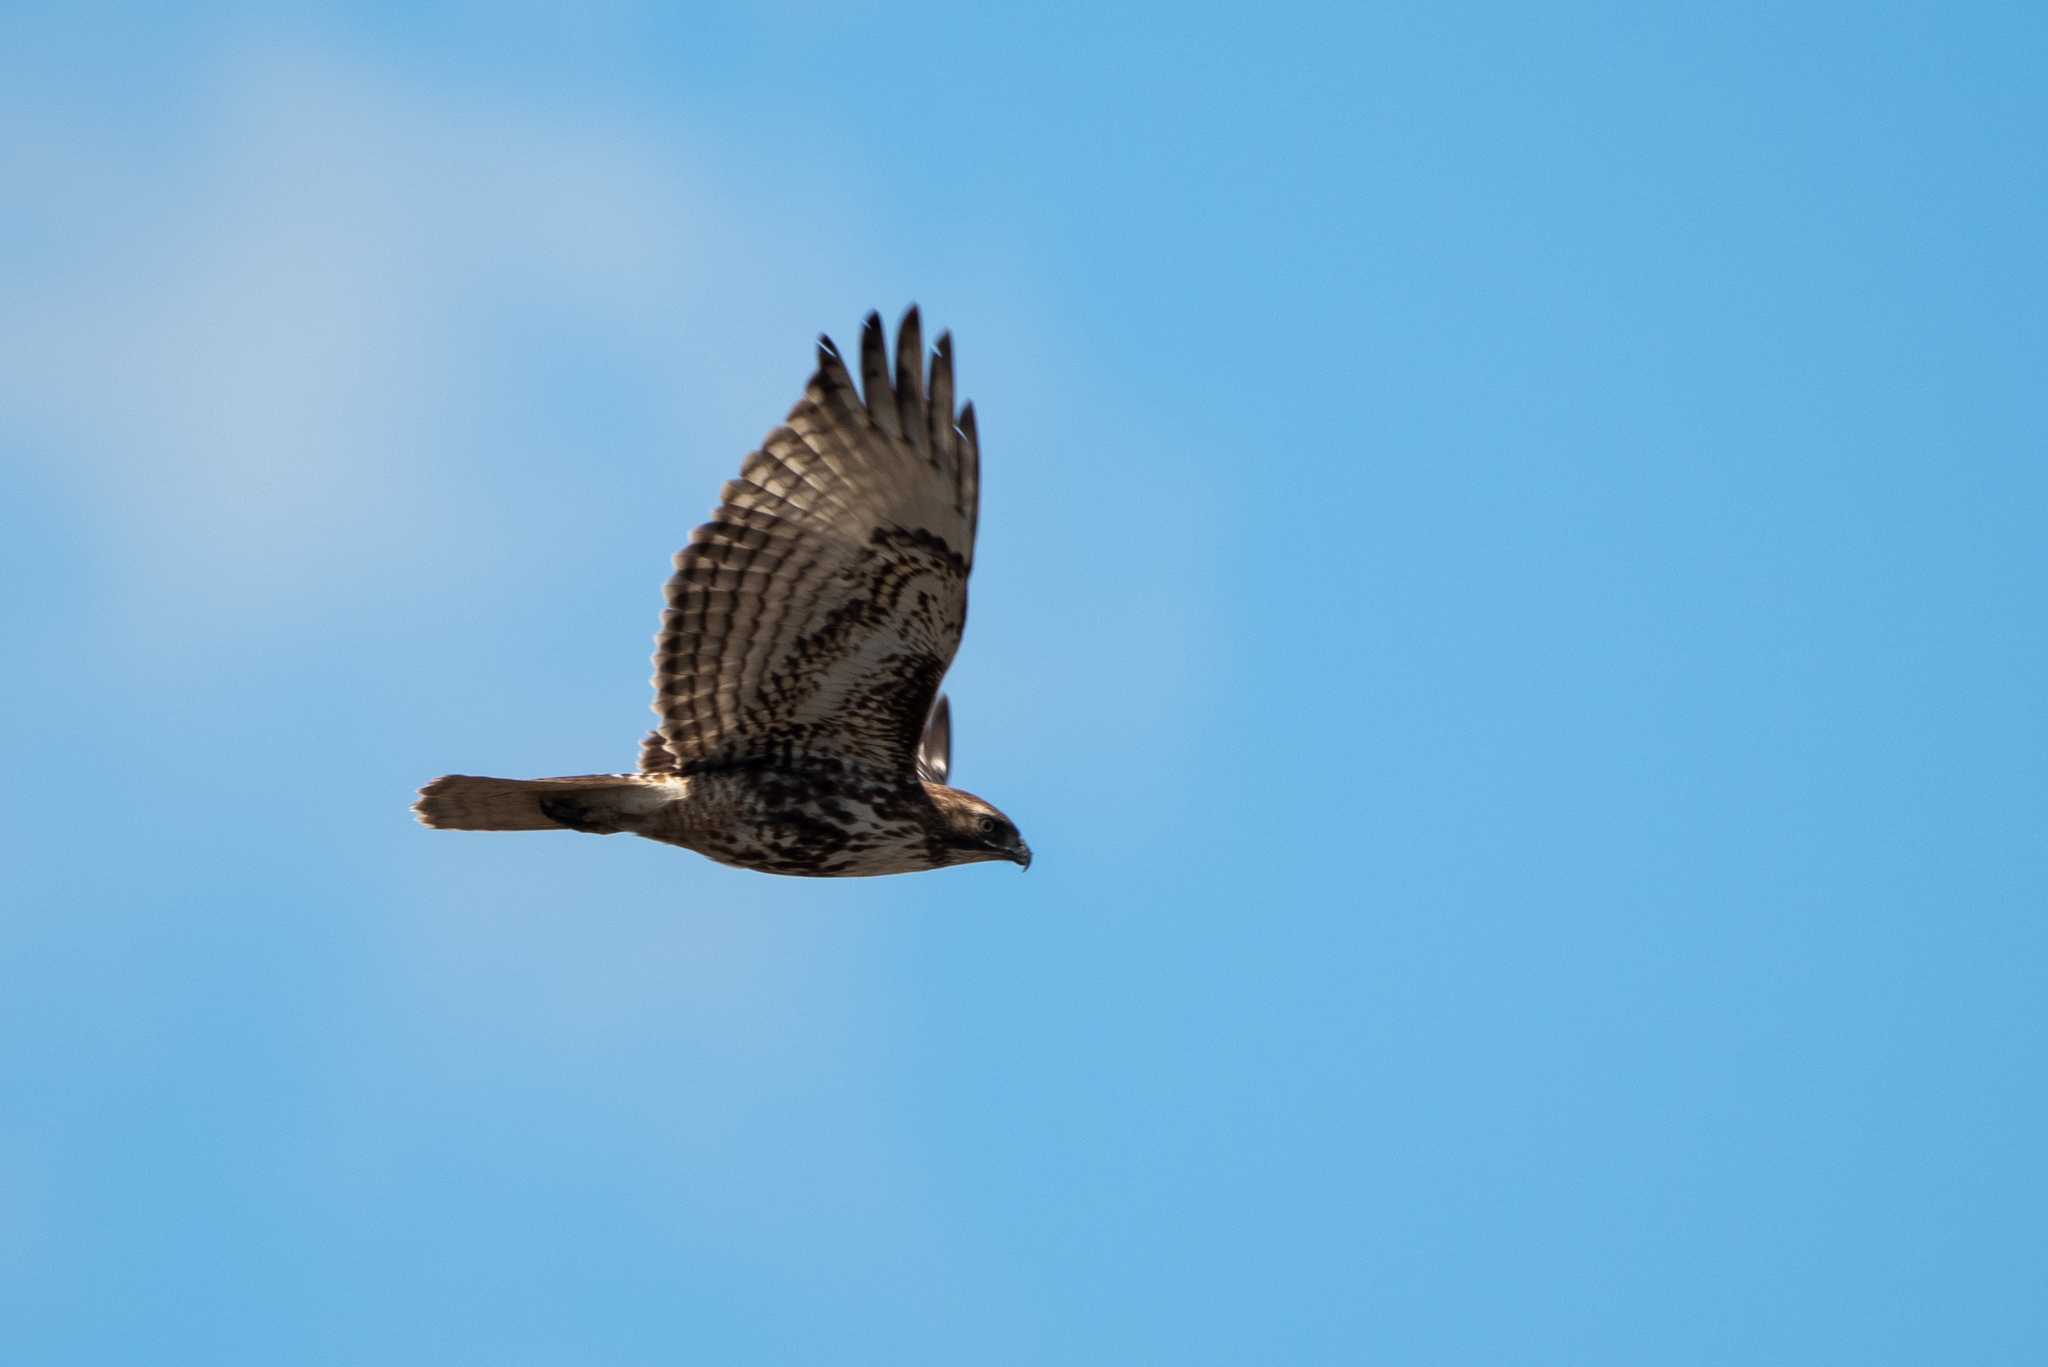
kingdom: Animalia
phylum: Chordata
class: Aves
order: Accipitriformes
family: Accipitridae
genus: Buteo
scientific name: Buteo jamaicensis
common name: Red-tailed hawk
